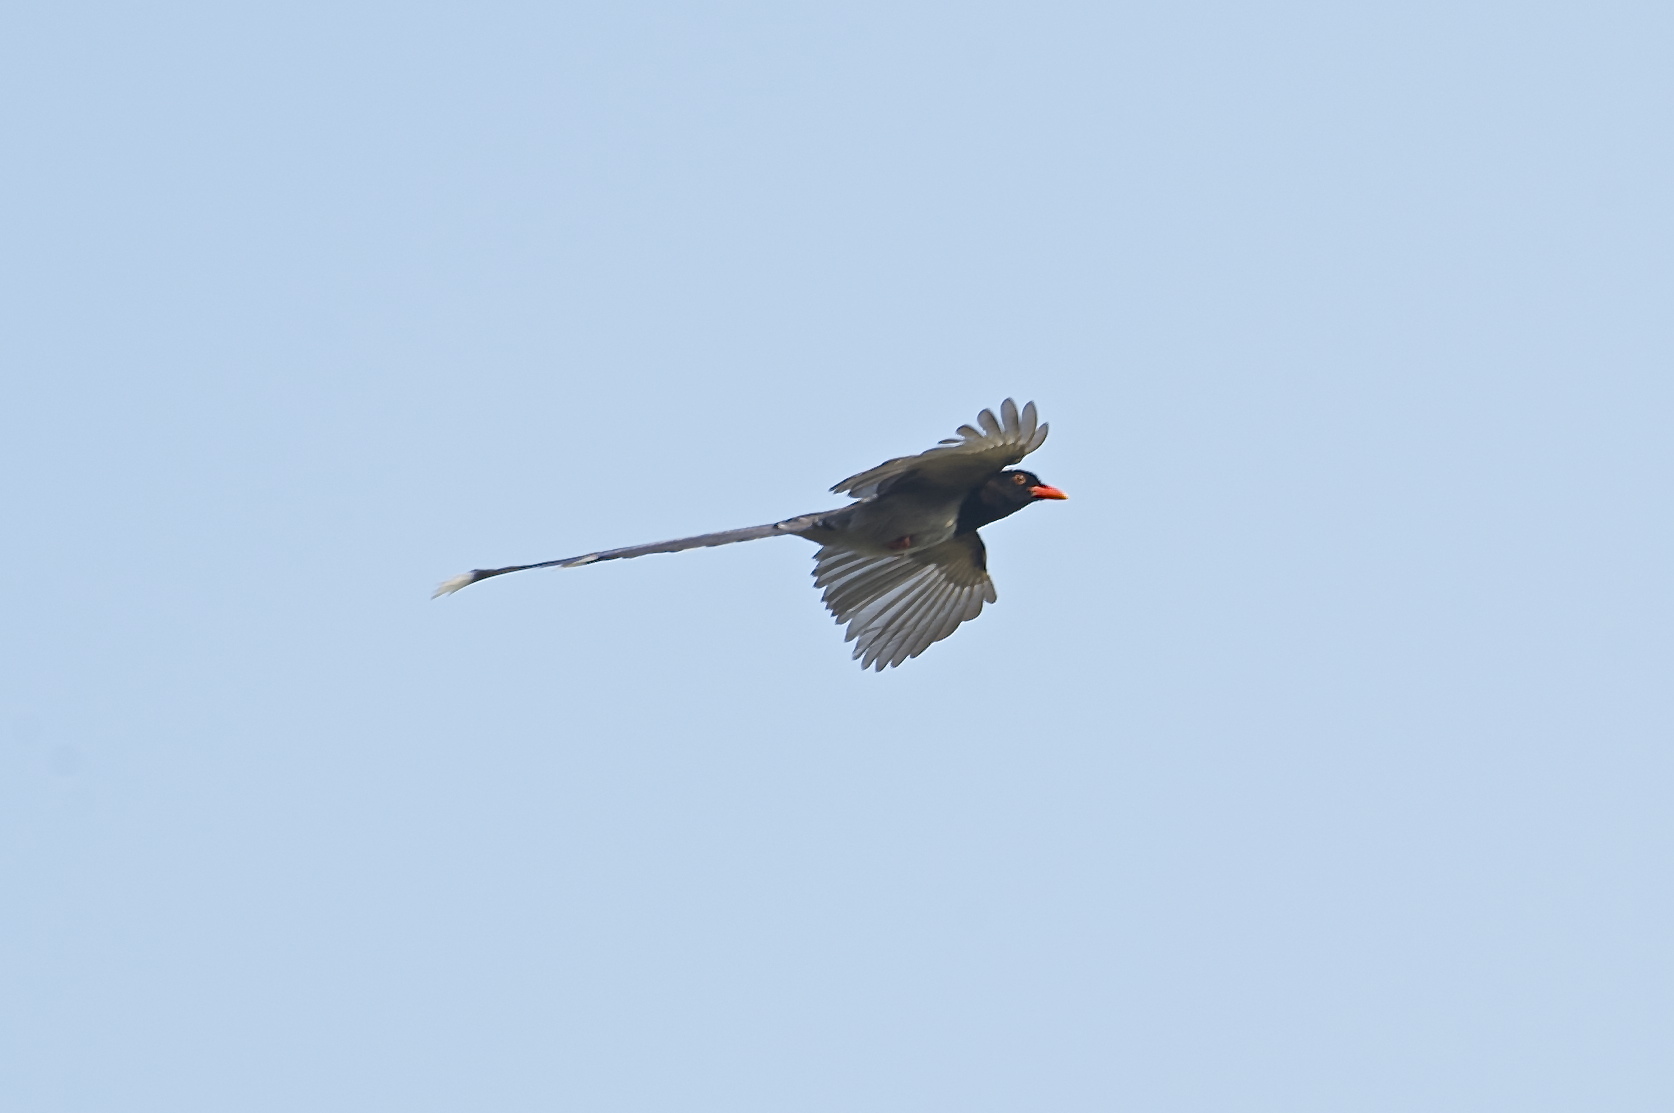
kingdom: Animalia
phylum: Chordata
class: Aves
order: Passeriformes
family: Corvidae
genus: Urocissa
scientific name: Urocissa erythroryncha
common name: Red-billed blue magpie
